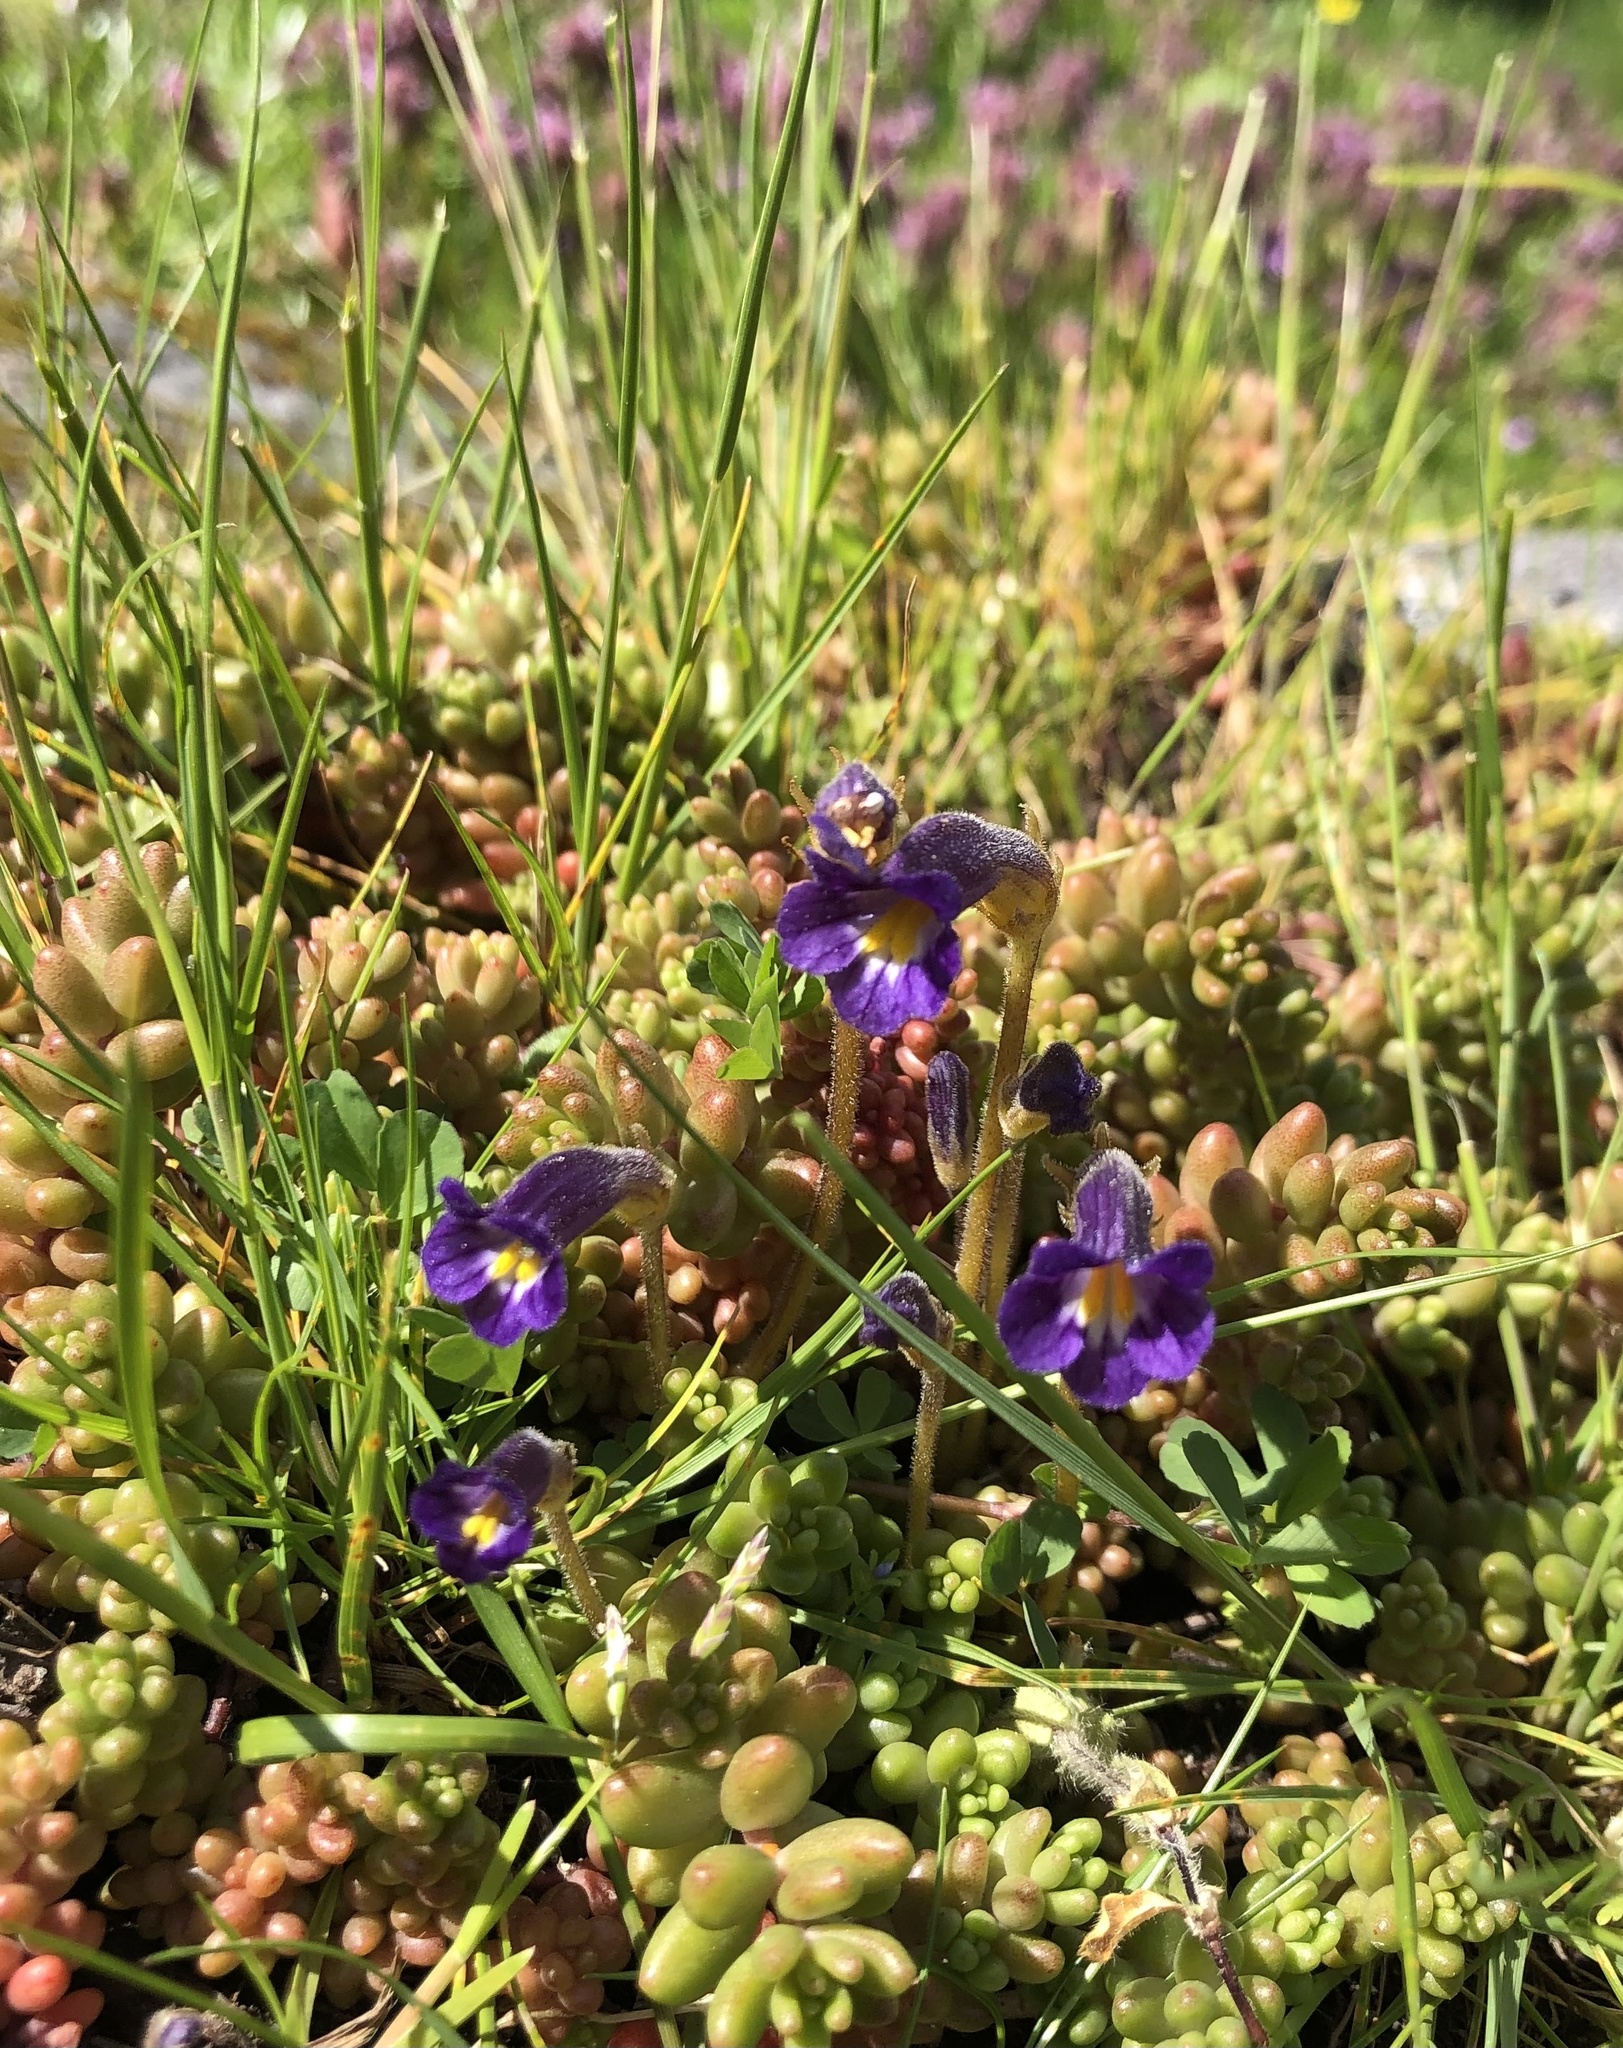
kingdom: Plantae
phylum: Tracheophyta
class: Magnoliopsida
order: Lamiales
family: Orobanchaceae
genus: Aphyllon
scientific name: Aphyllon uniflorum
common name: One-flowered broomrape
